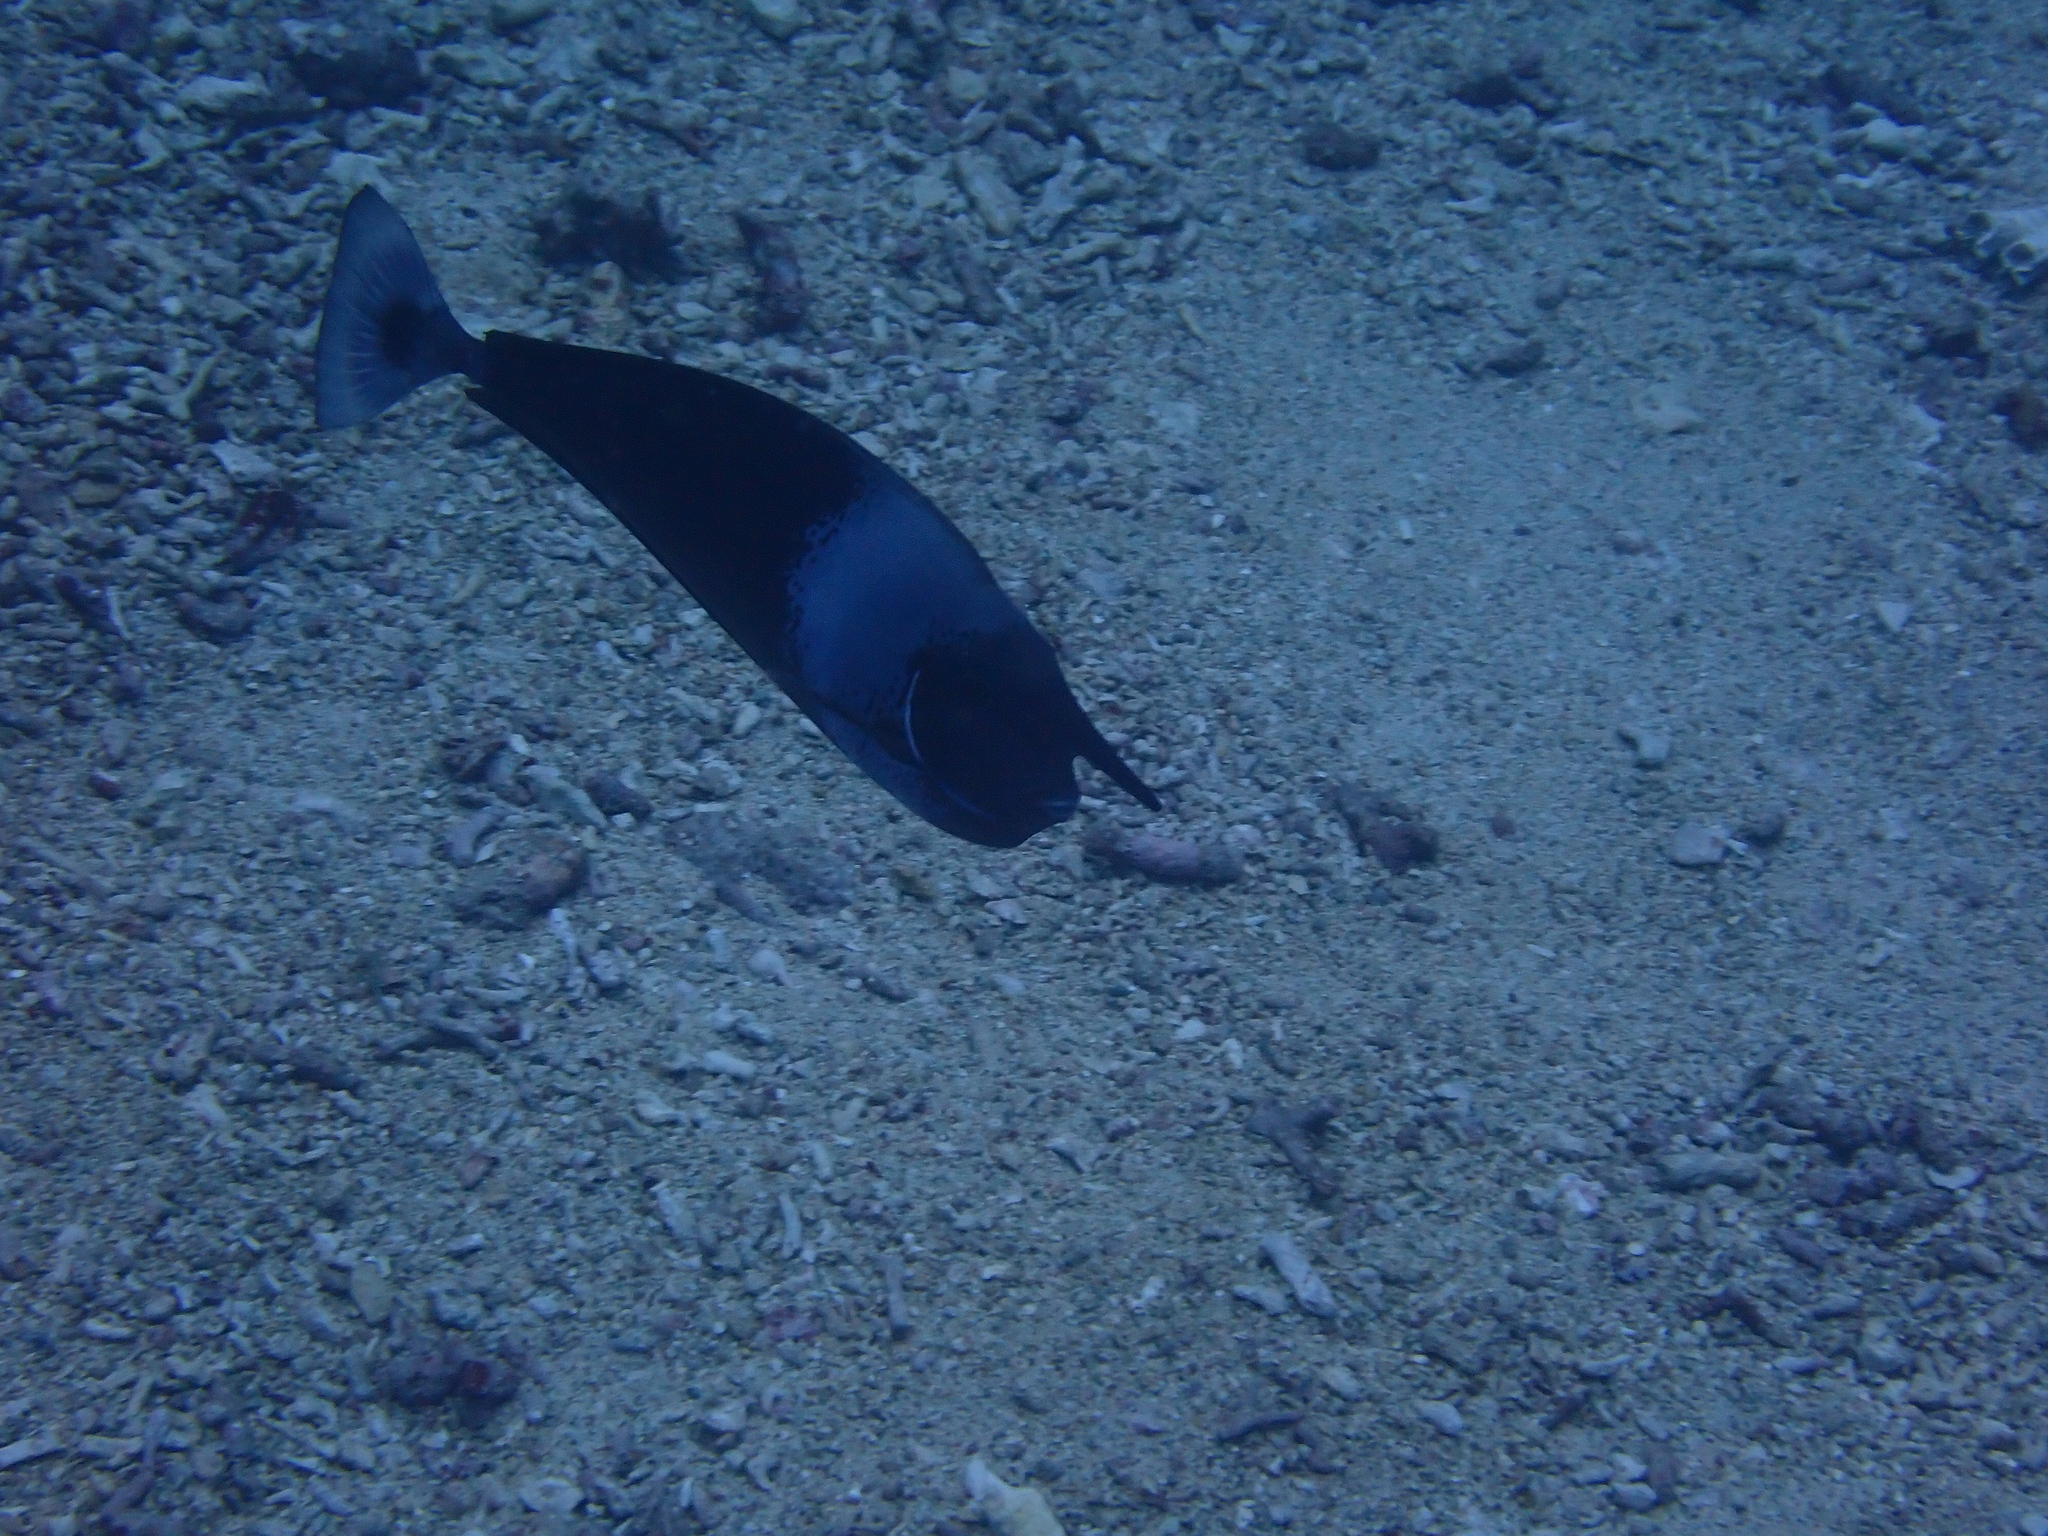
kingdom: Animalia
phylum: Chordata
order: Perciformes
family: Acanthuridae
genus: Naso
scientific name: Naso brevirostris
